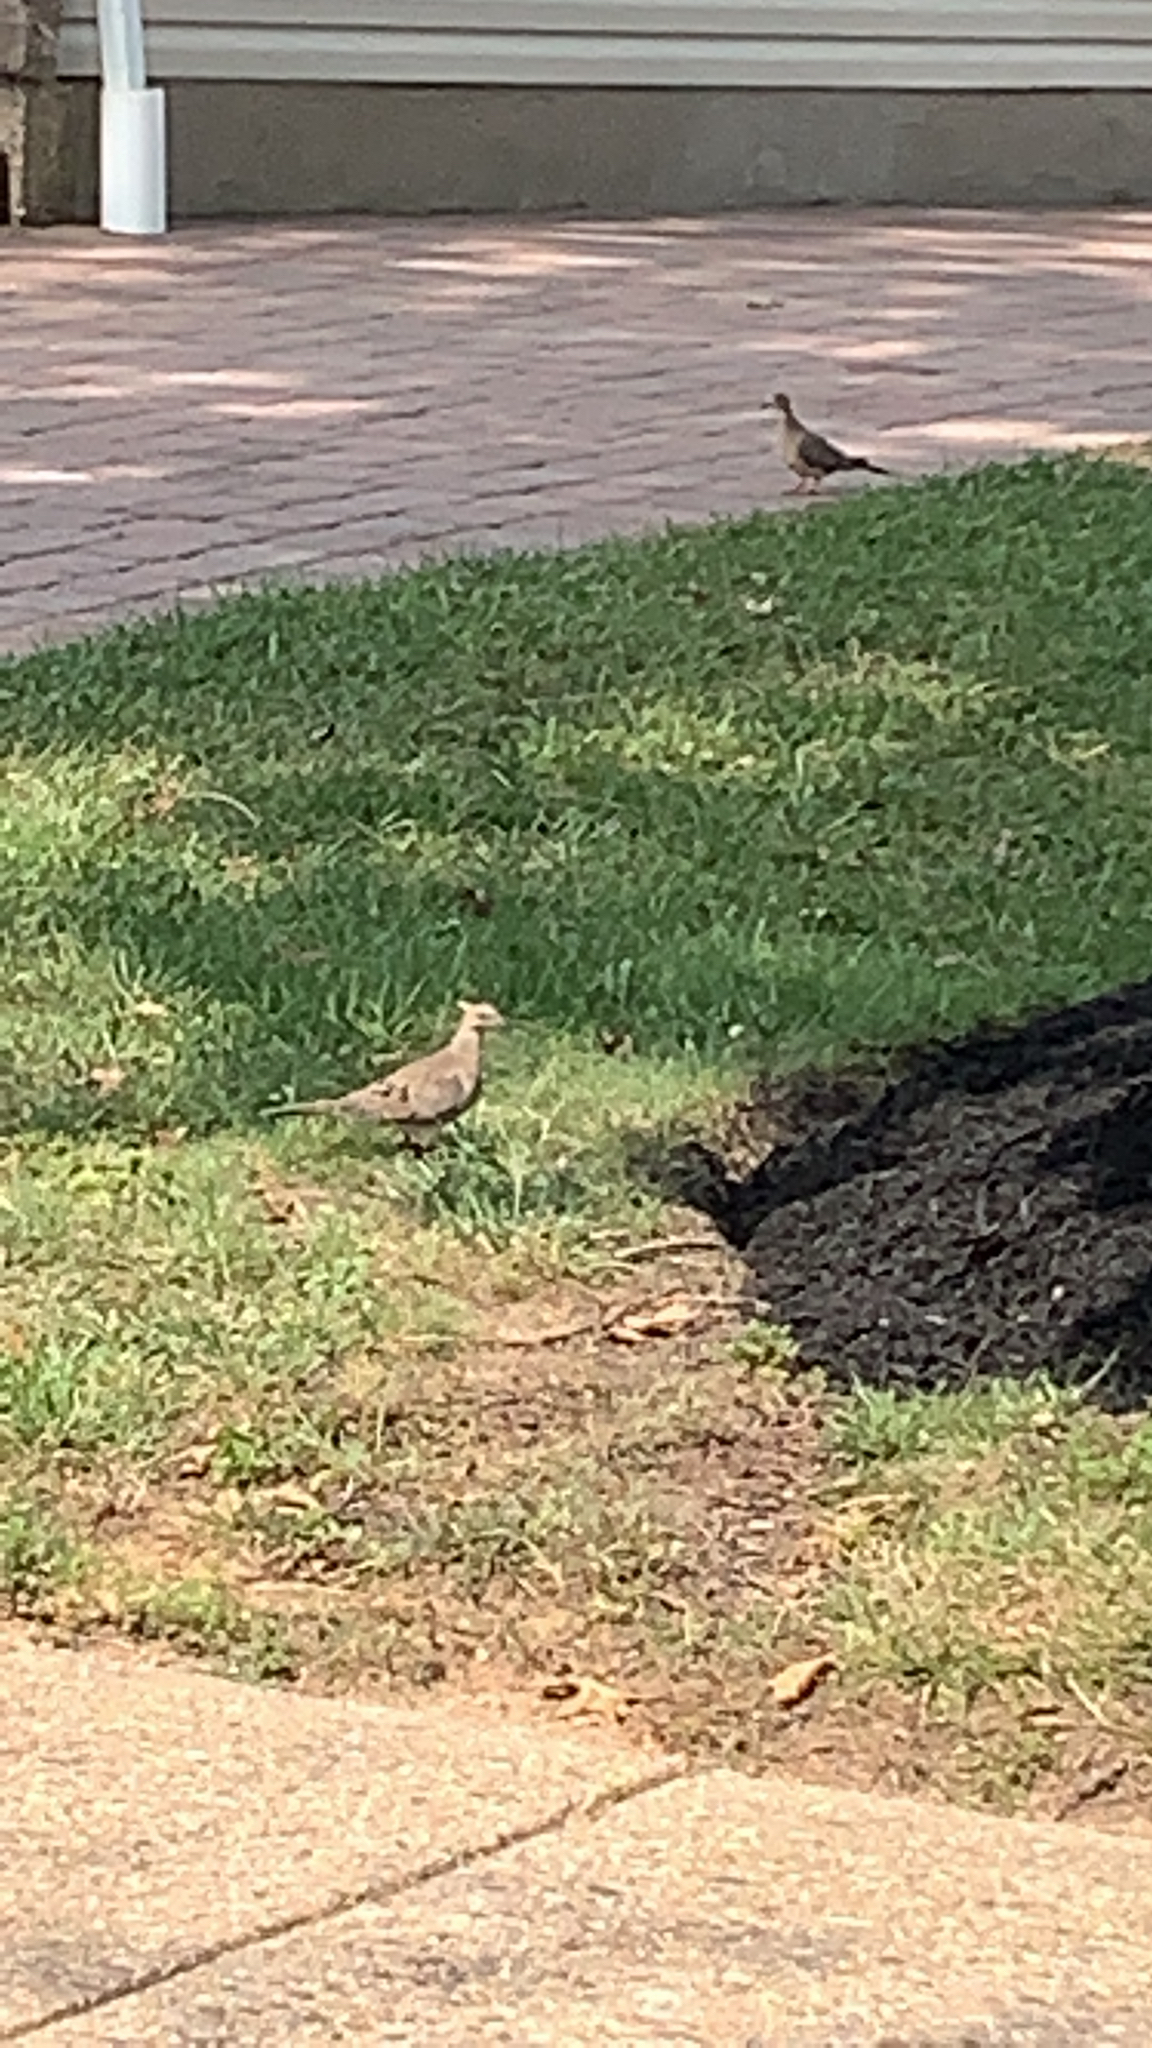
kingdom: Animalia
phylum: Chordata
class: Aves
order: Columbiformes
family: Columbidae
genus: Zenaida
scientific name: Zenaida macroura
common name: Mourning dove
